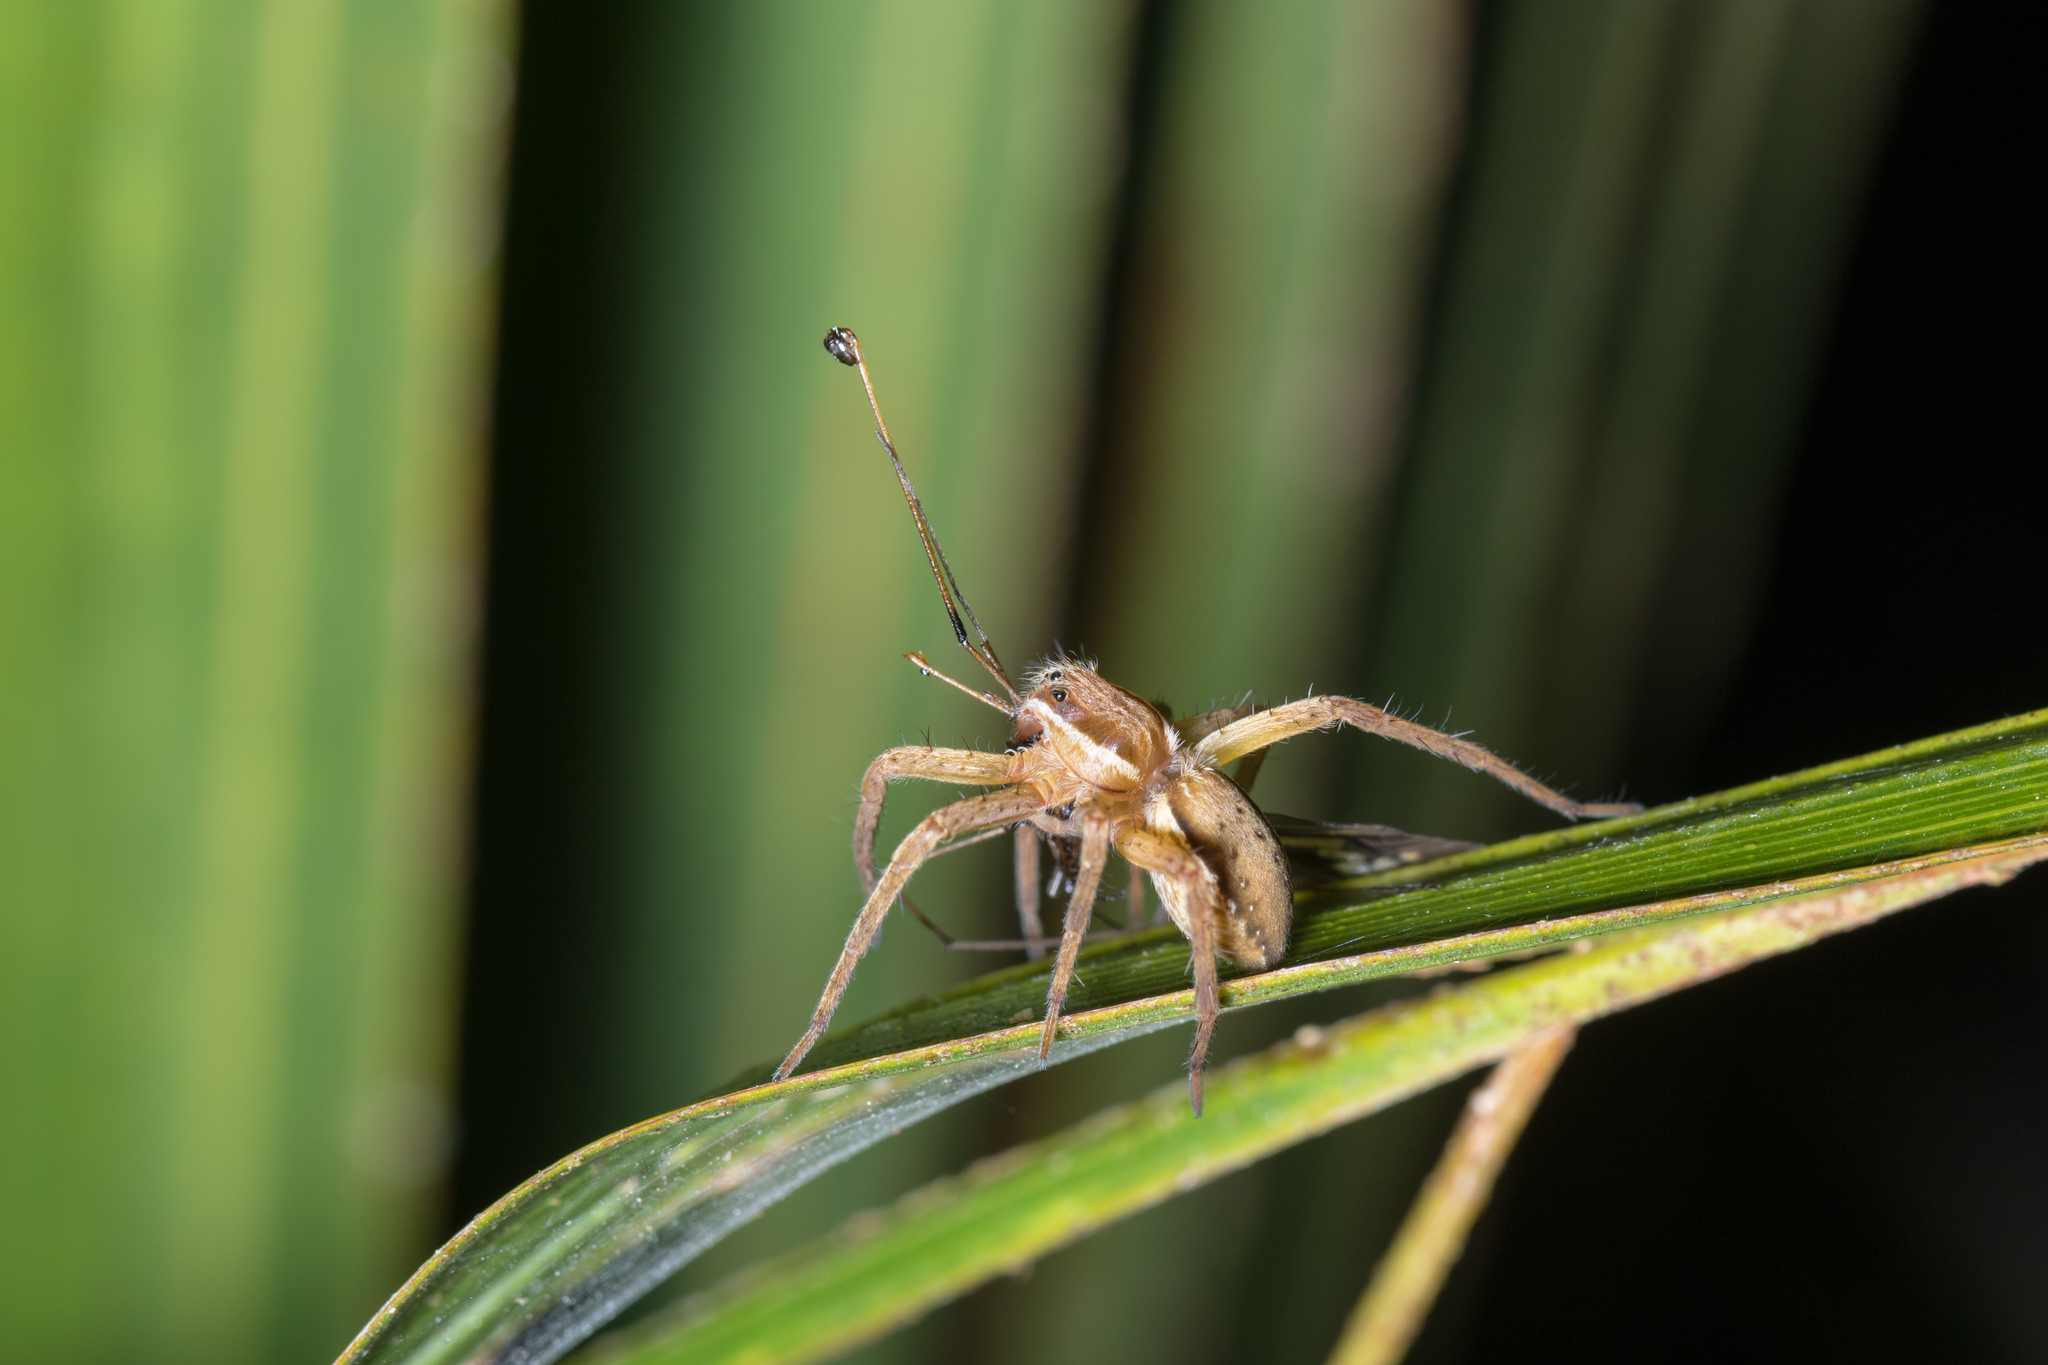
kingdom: Animalia
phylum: Arthropoda
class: Arachnida
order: Araneae
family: Pisauridae
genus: Dolomedes
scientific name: Dolomedes minor
